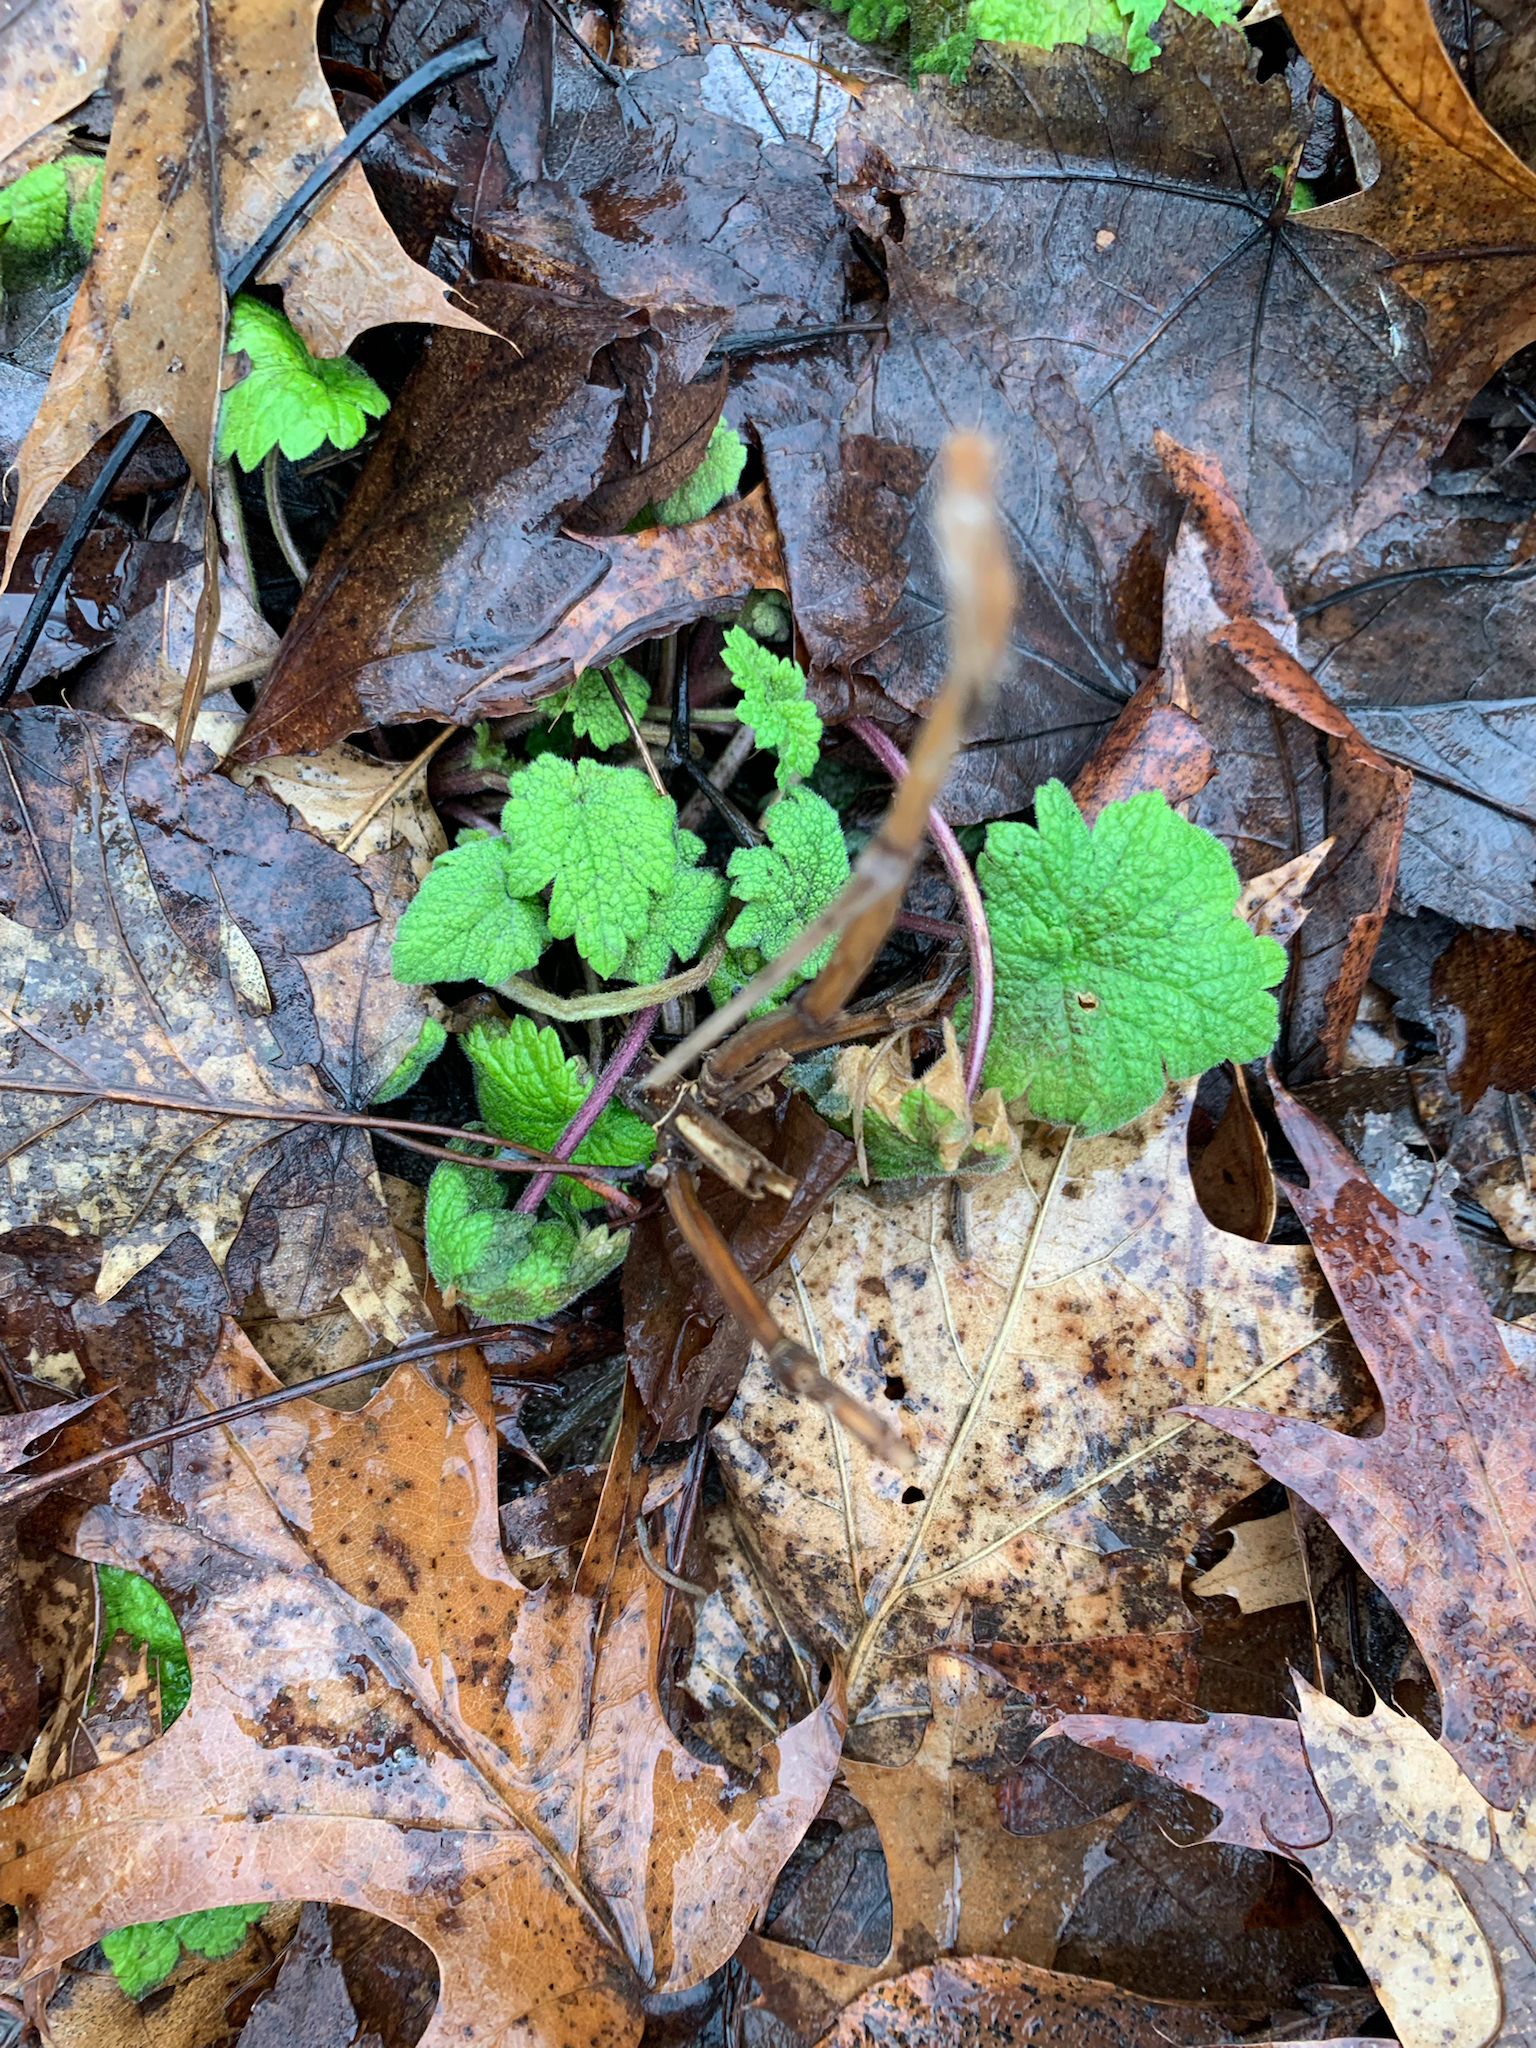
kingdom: Plantae
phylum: Tracheophyta
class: Magnoliopsida
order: Lamiales
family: Lamiaceae
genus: Leonurus
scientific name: Leonurus cardiaca
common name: Motherwort
